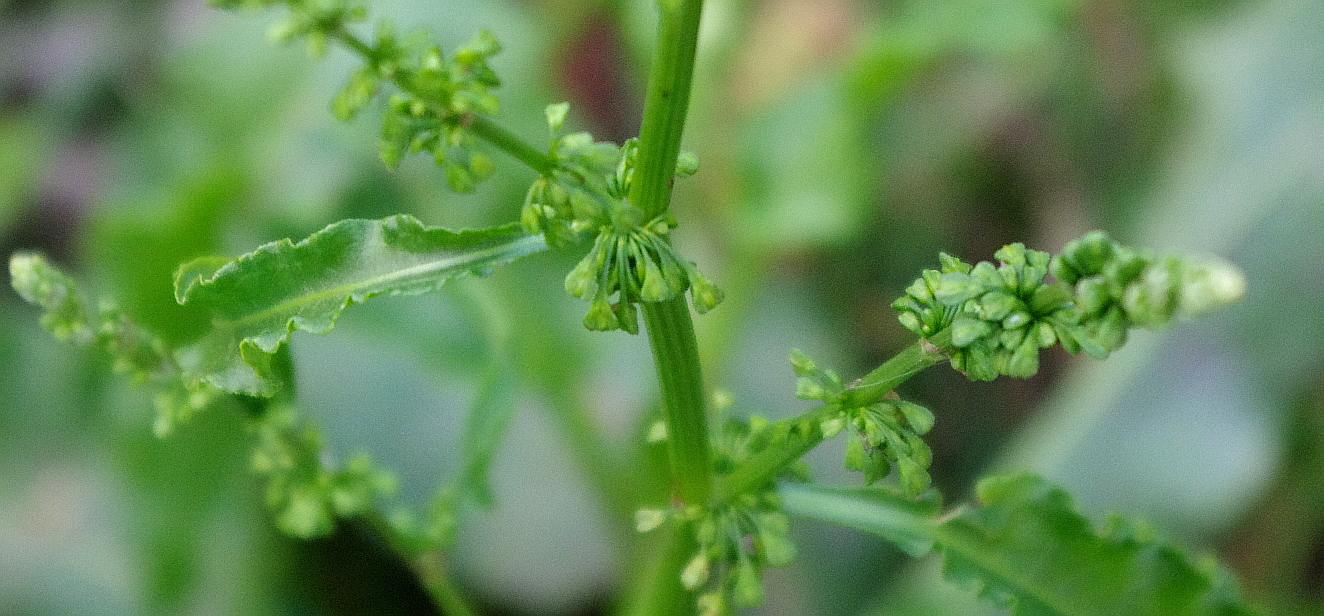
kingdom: Plantae
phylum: Tracheophyta
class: Magnoliopsida
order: Caryophyllales
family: Polygonaceae
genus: Rumex
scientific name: Rumex crispus
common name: Curled dock
